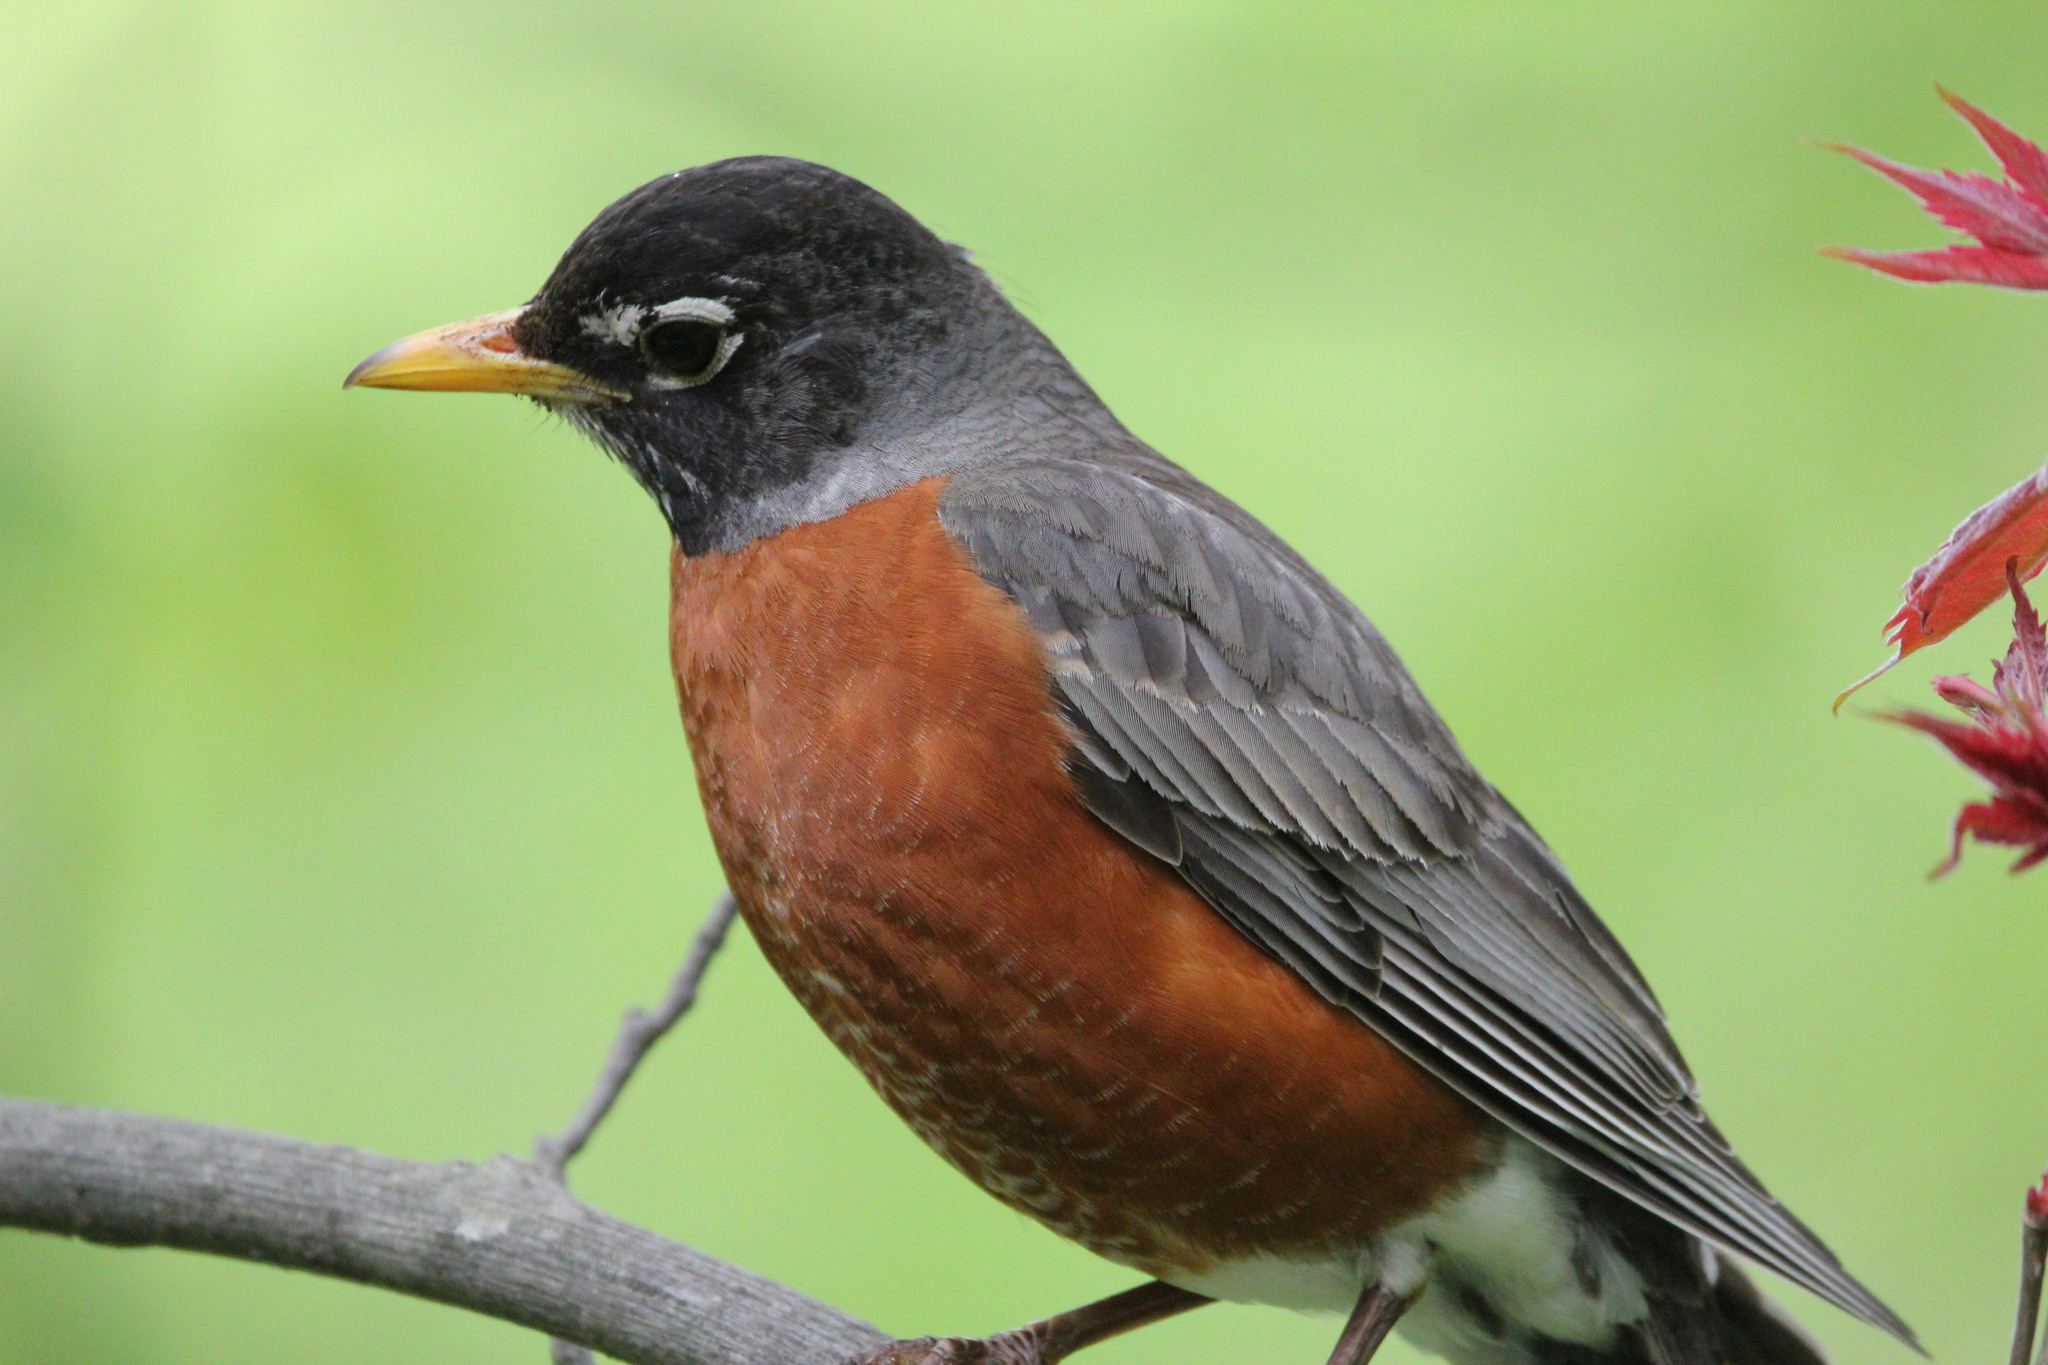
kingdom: Animalia
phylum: Chordata
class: Aves
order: Passeriformes
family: Turdidae
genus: Turdus
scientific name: Turdus migratorius
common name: American robin
